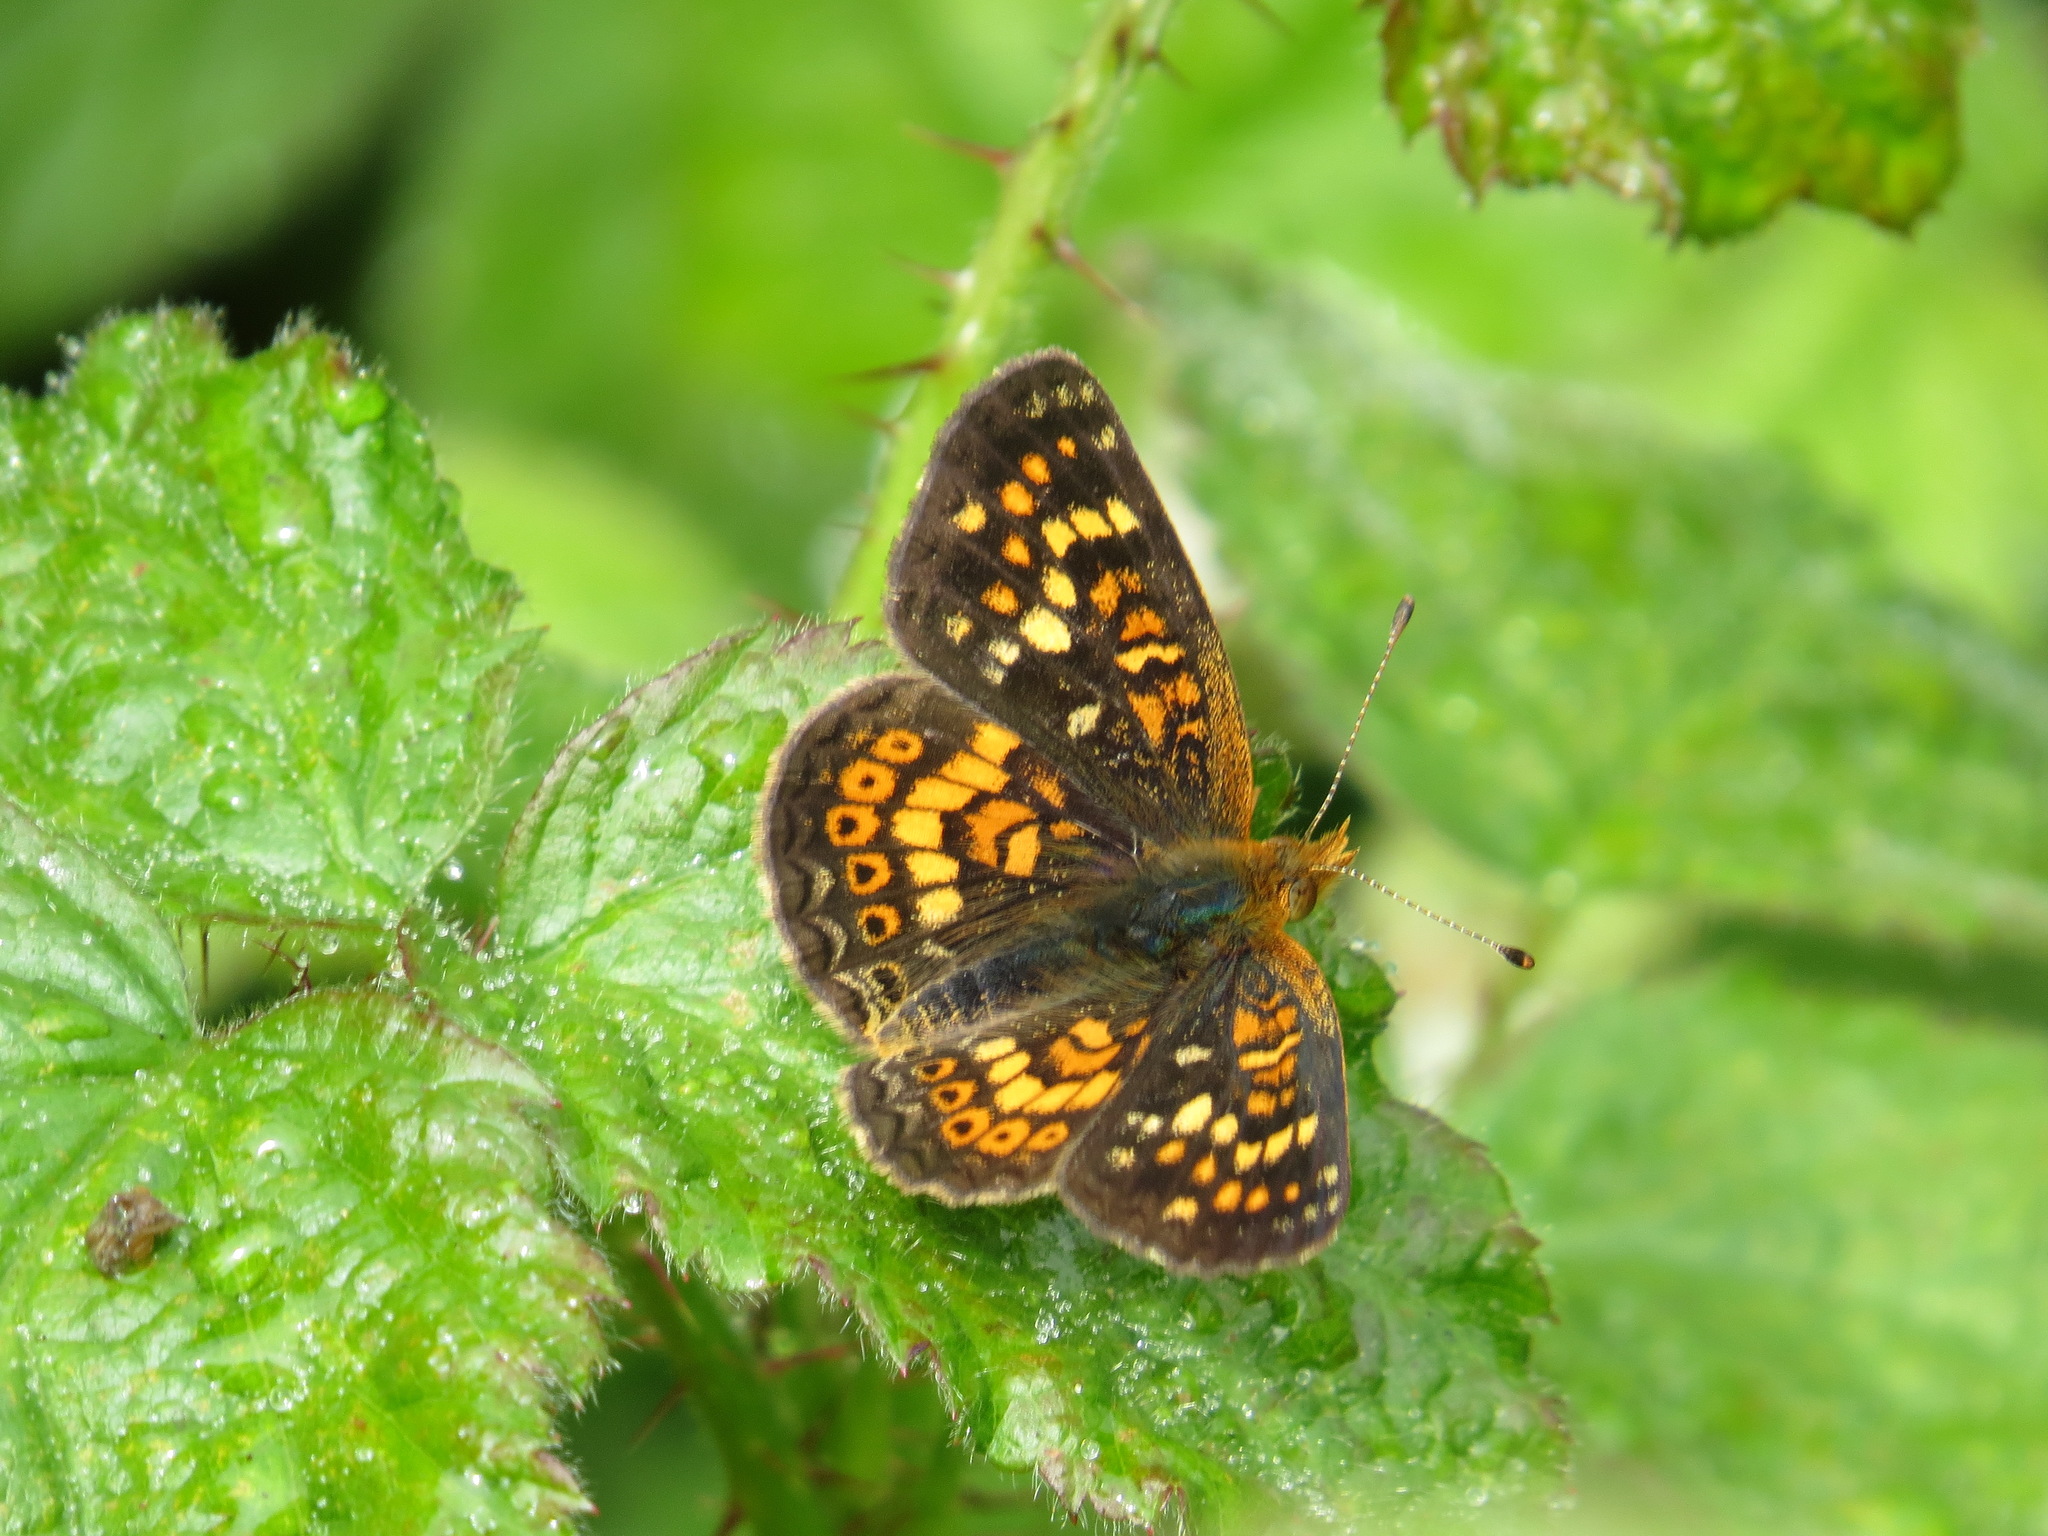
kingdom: Animalia
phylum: Arthropoda
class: Insecta
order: Lepidoptera
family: Nymphalidae
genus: Phyciodes
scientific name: Phyciodes tharos
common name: Pearl crescent
